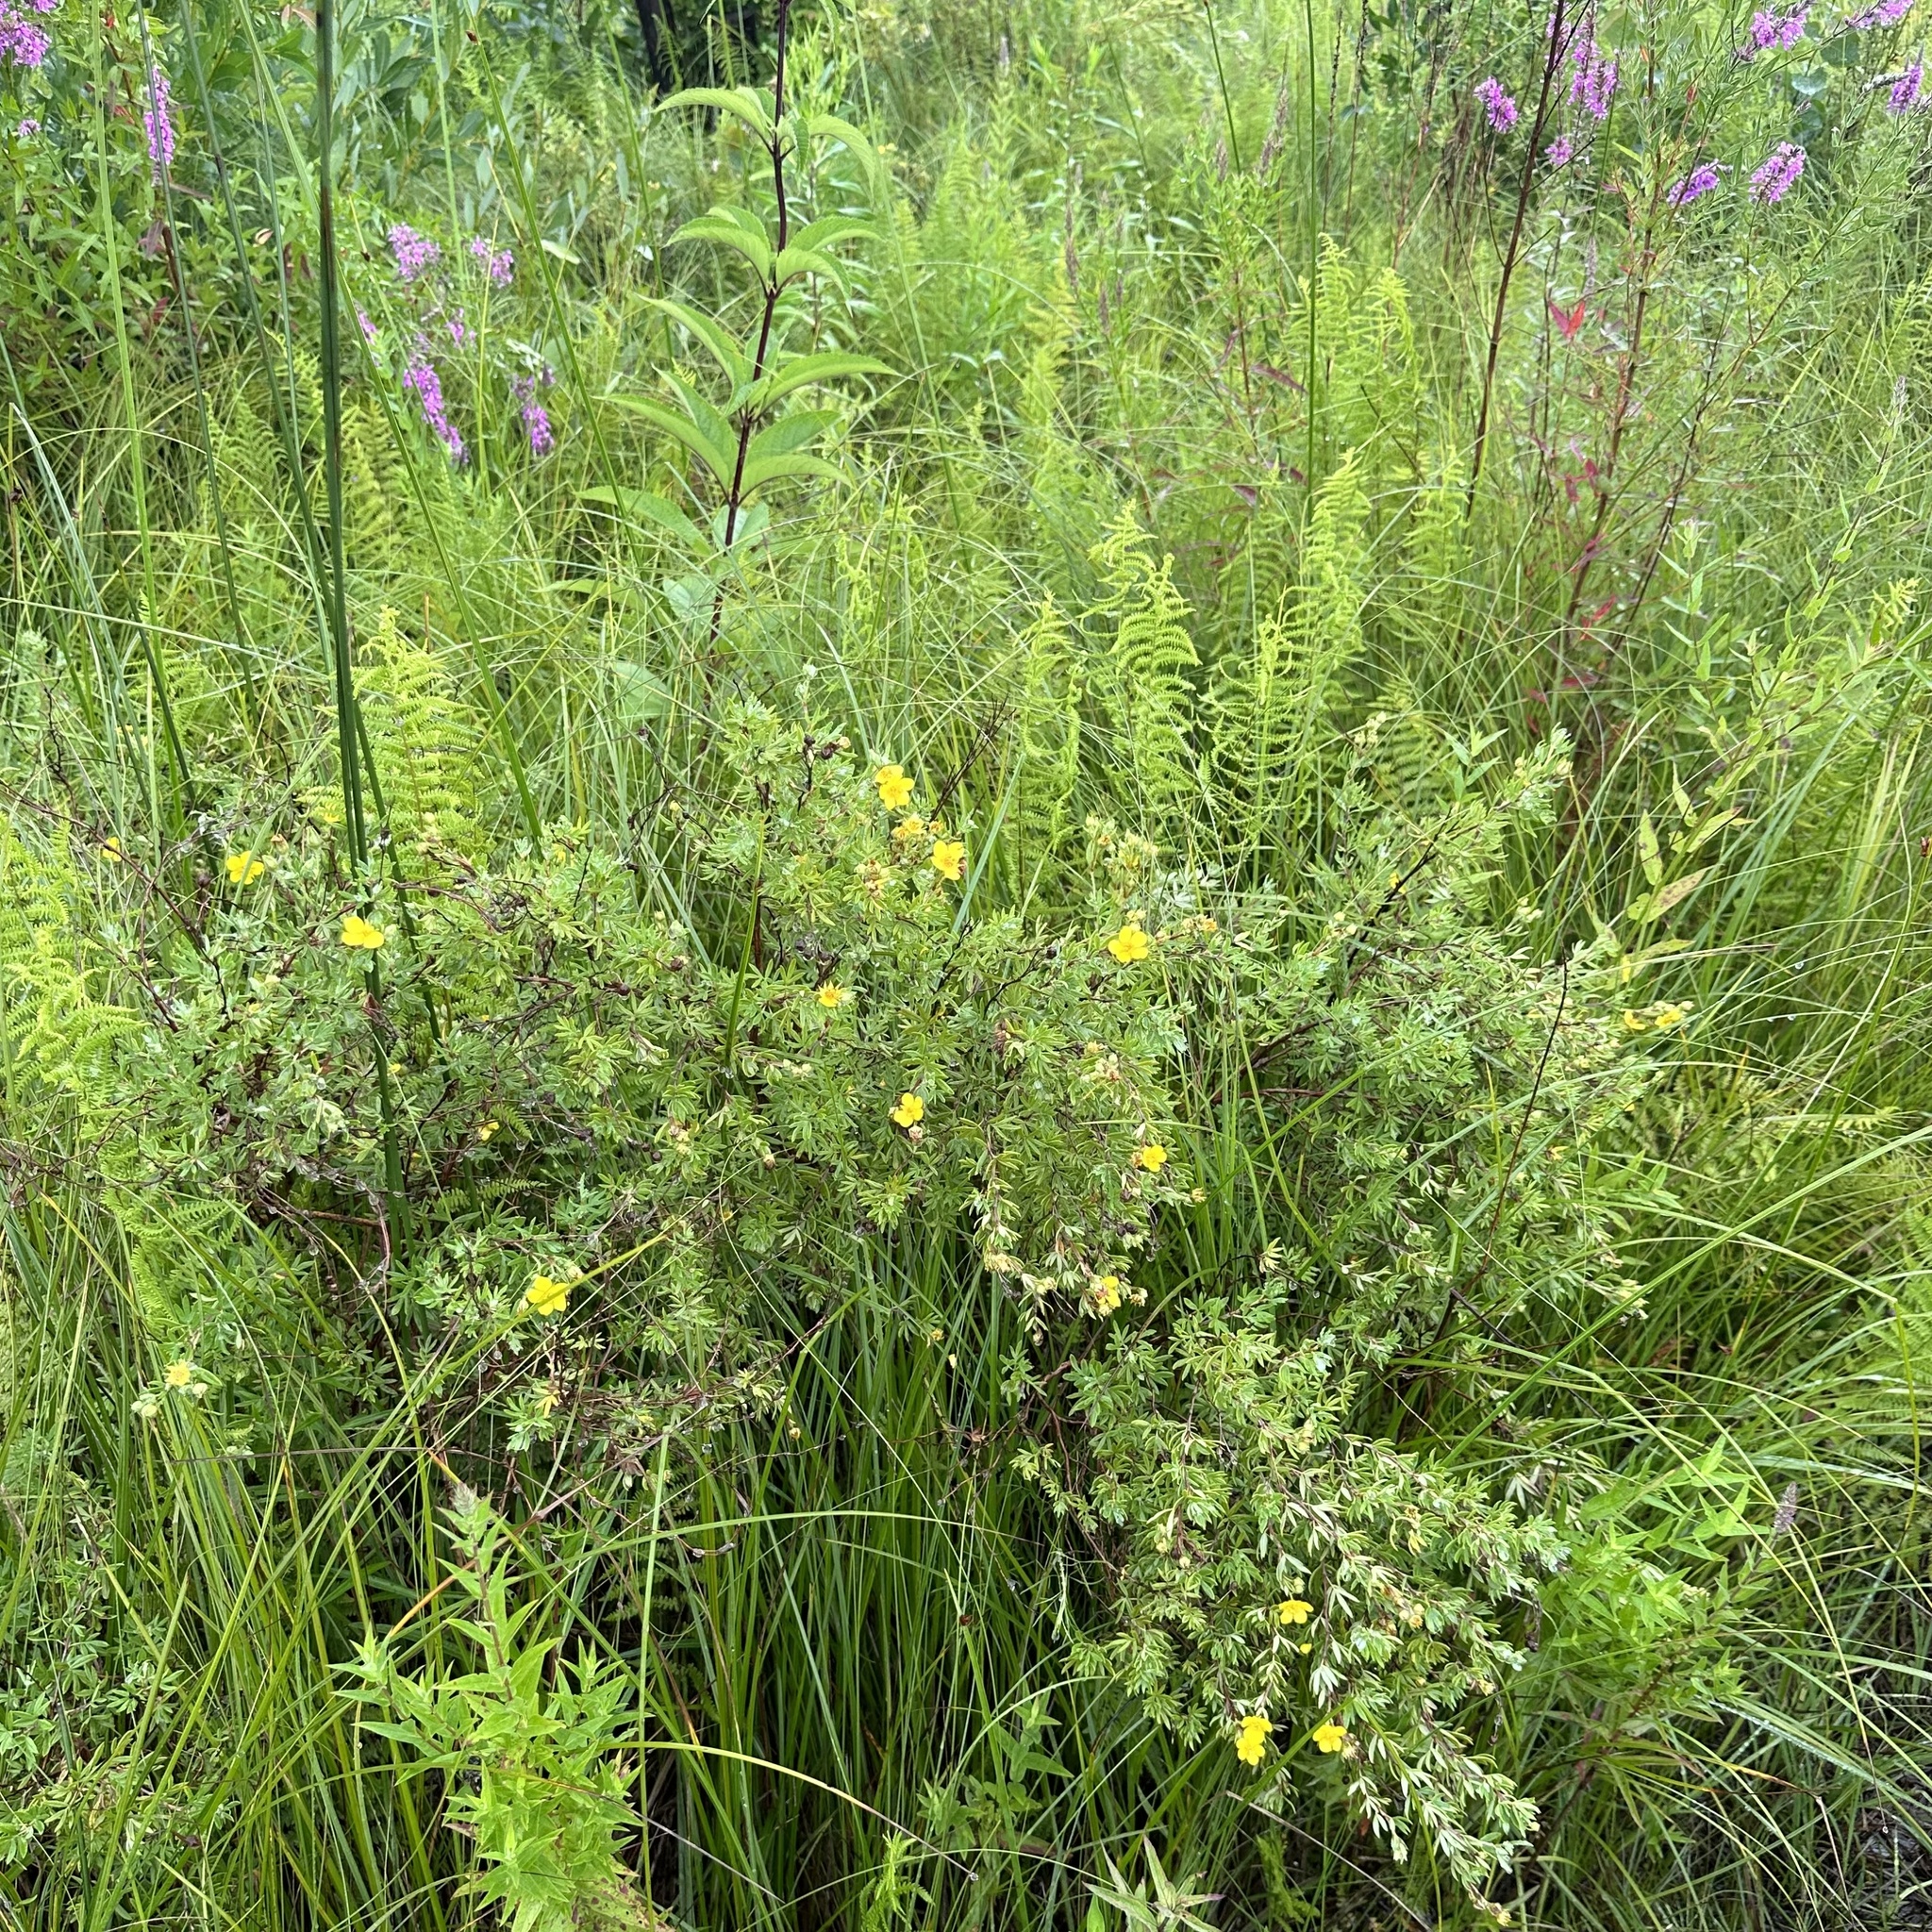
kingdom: Plantae
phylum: Tracheophyta
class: Magnoliopsida
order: Rosales
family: Rosaceae
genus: Dasiphora
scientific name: Dasiphora fruticosa
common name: Shrubby cinquefoil
